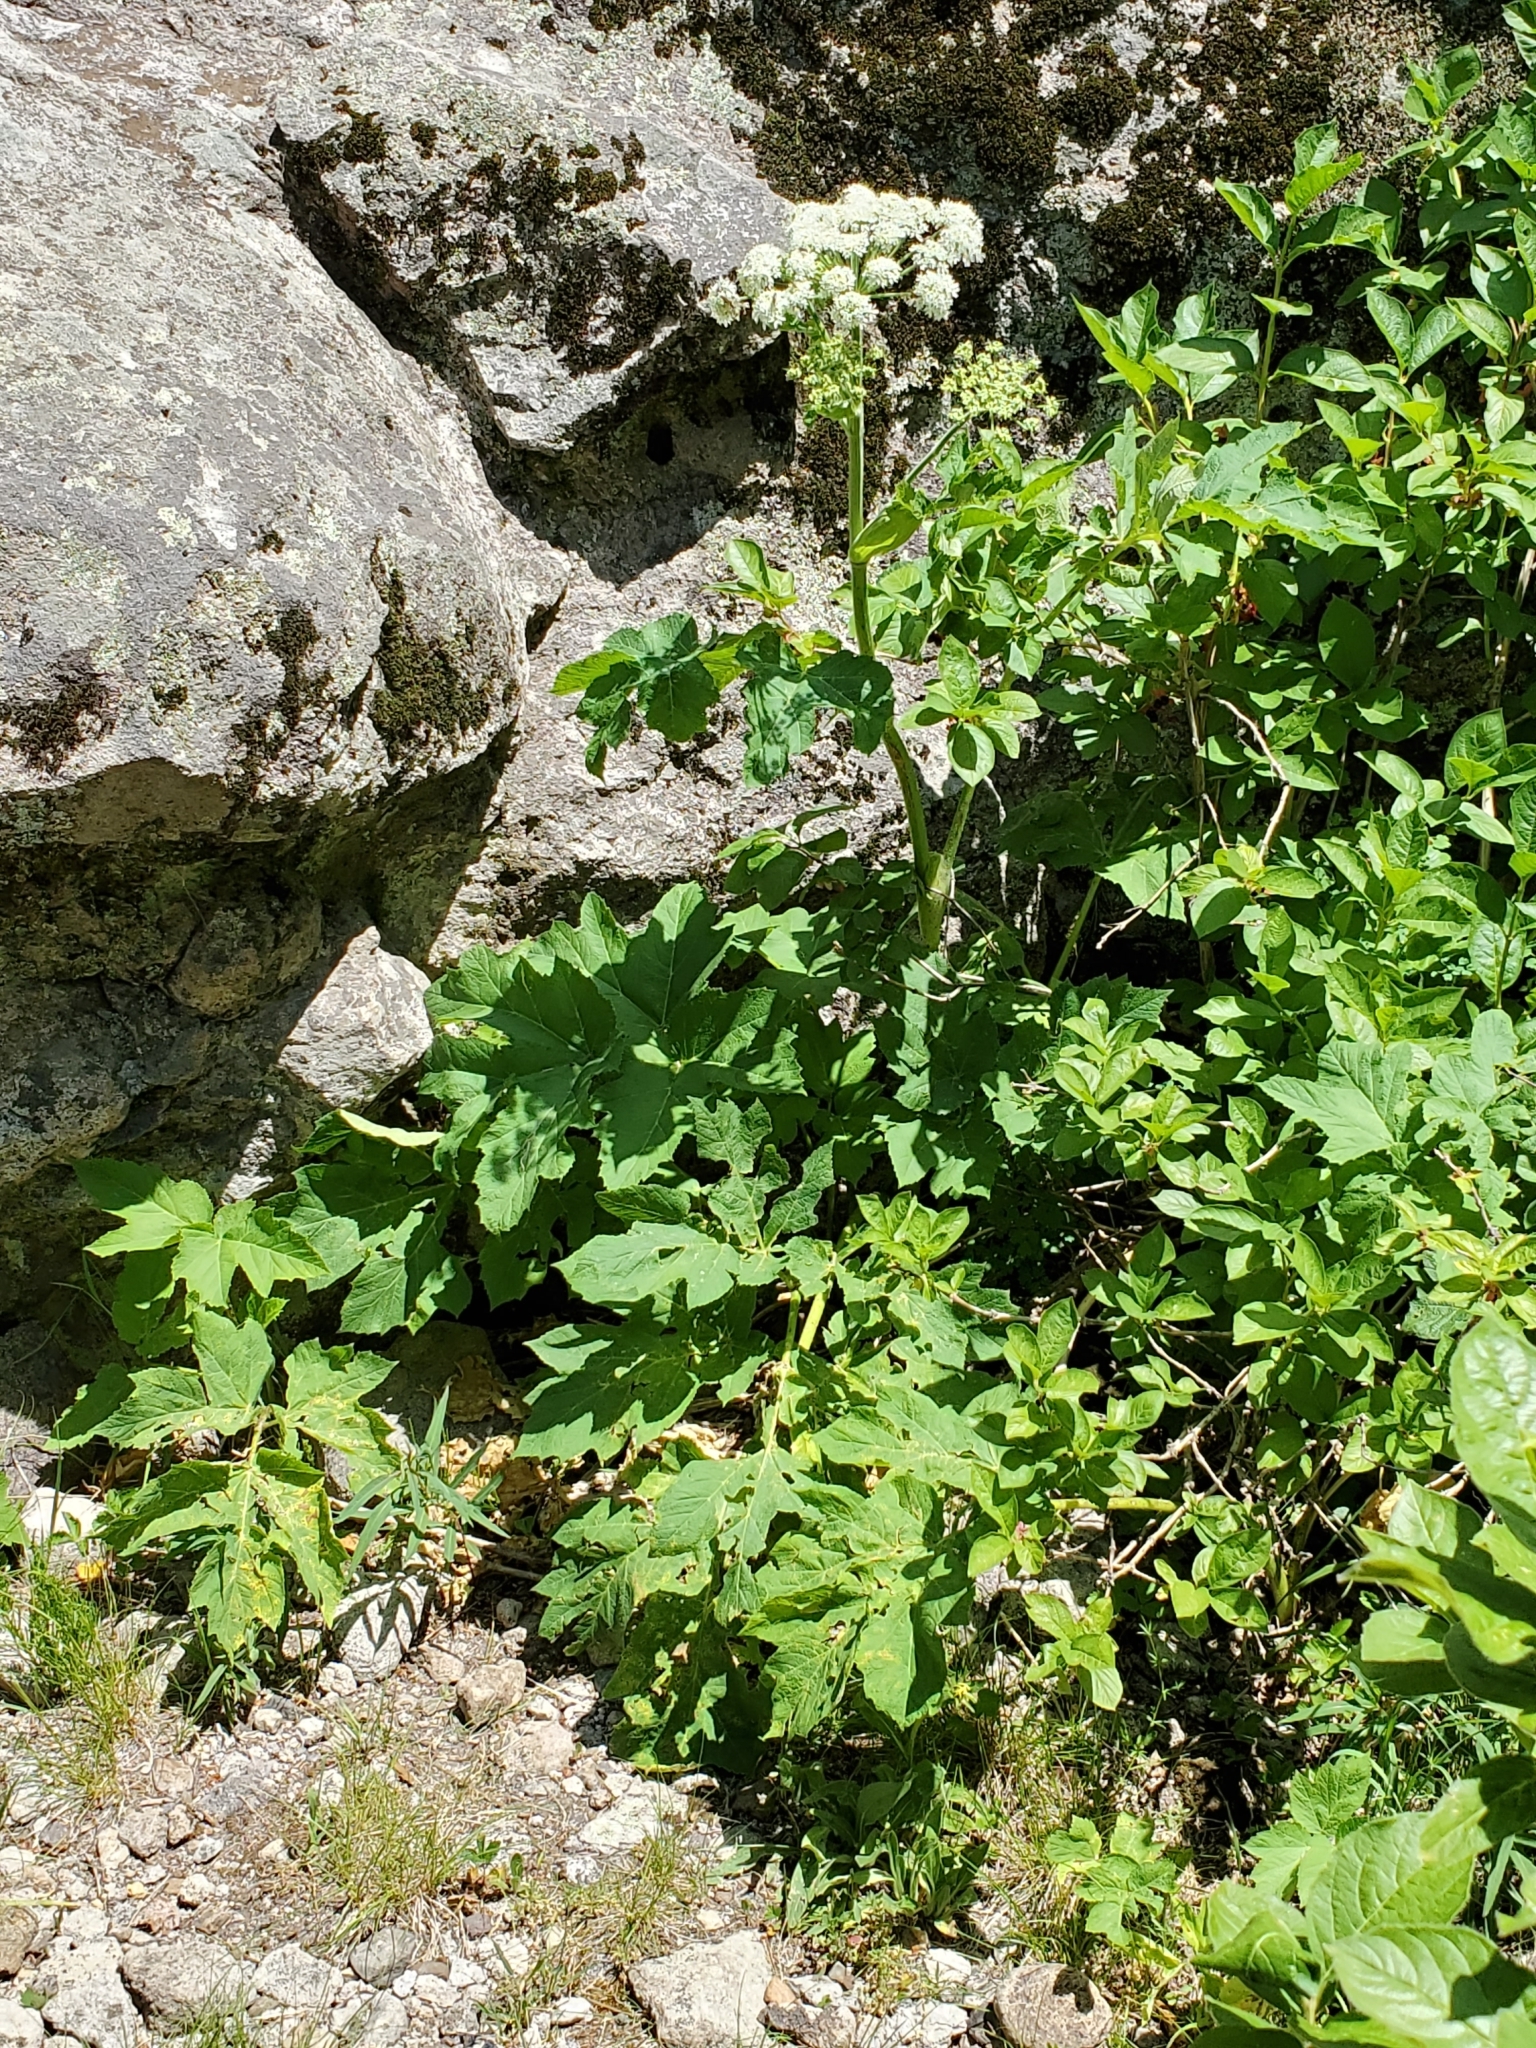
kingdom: Plantae
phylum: Tracheophyta
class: Magnoliopsida
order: Apiales
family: Apiaceae
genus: Heracleum
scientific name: Heracleum maximum
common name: American cow parsnip
